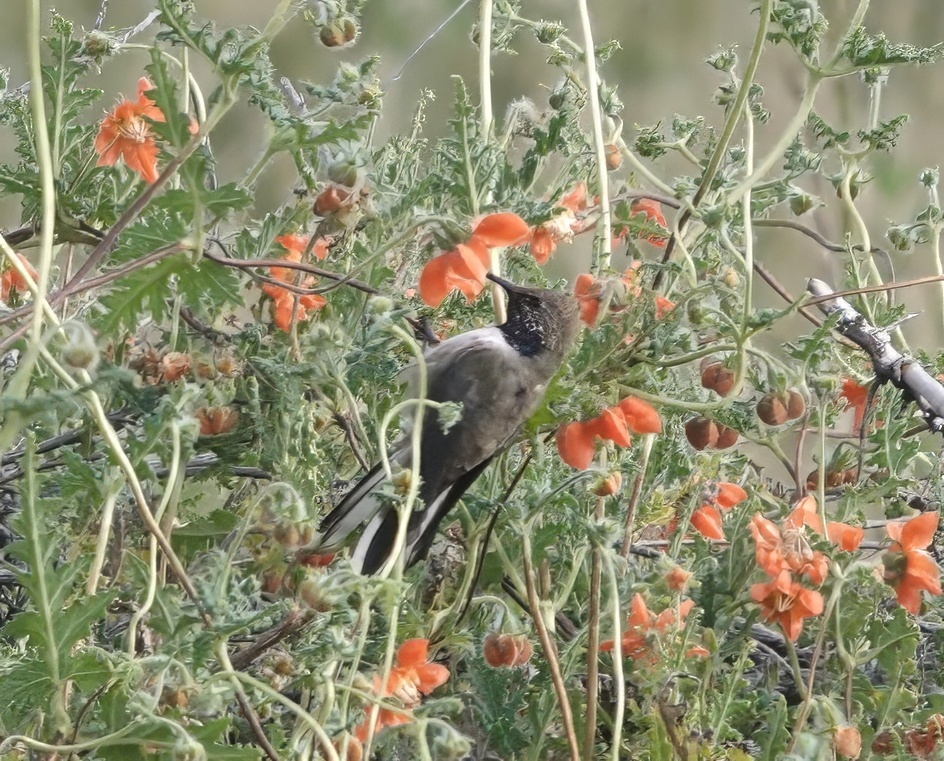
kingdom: Animalia
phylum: Chordata
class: Aves
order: Apodiformes
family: Trochilidae
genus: Oreotrochilus
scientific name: Oreotrochilus estella
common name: Andean hillstar
